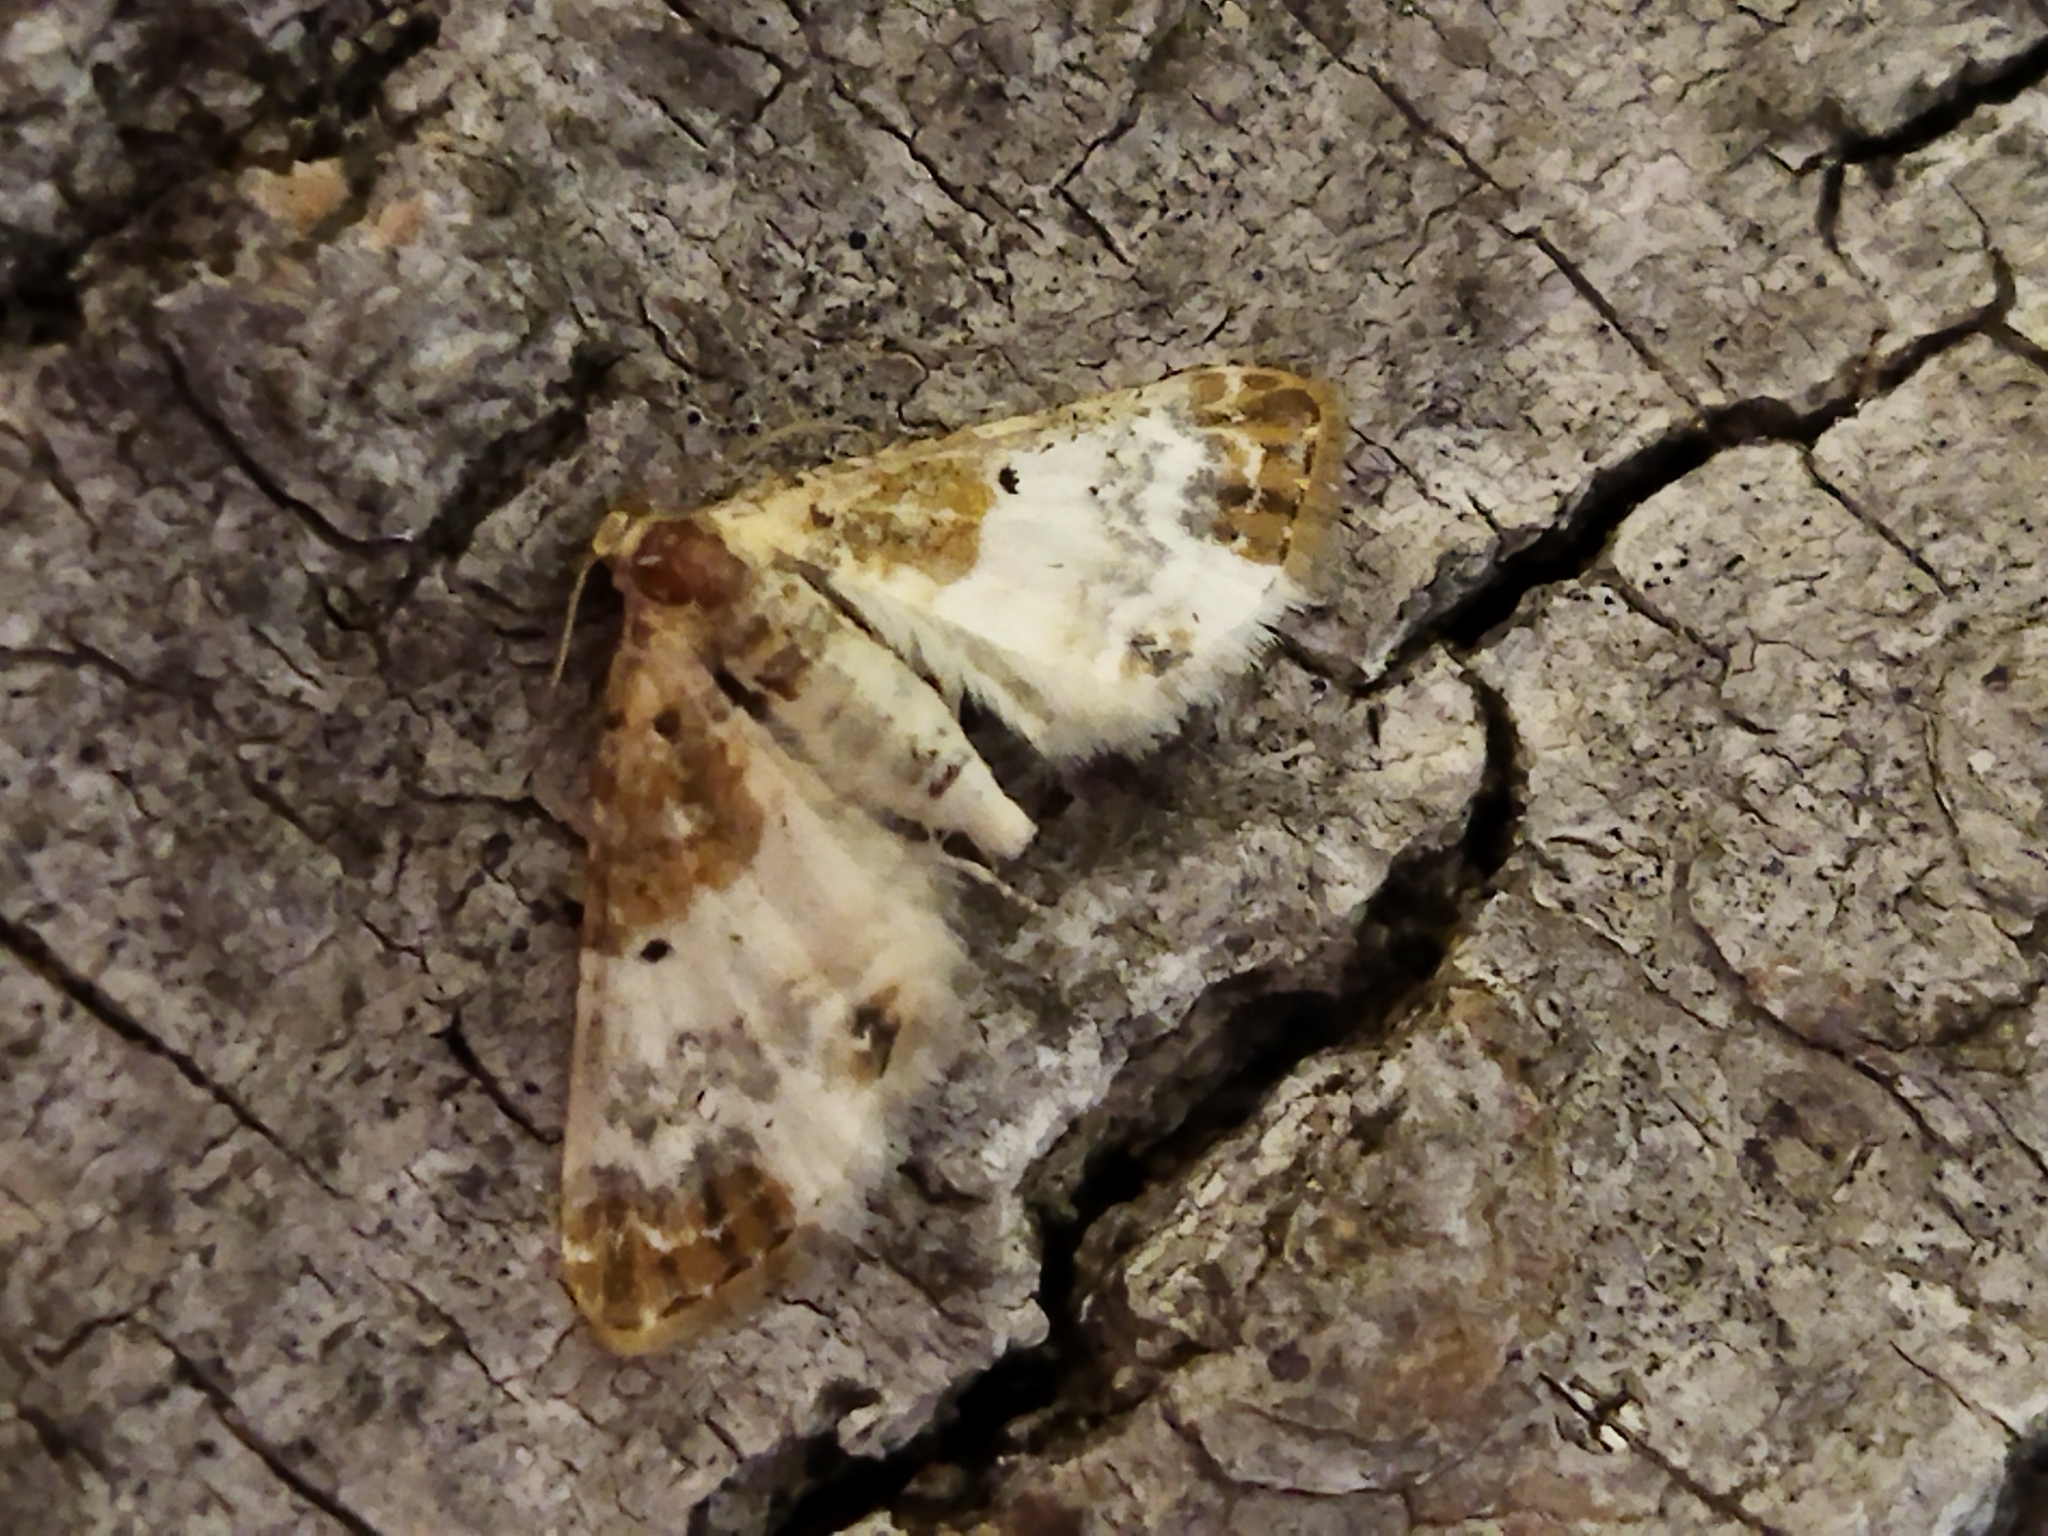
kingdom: Animalia
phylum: Arthropoda
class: Insecta
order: Lepidoptera
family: Geometridae
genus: Eupithecia
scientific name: Eupithecia breviculata
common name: Rusty-shouldered pug
